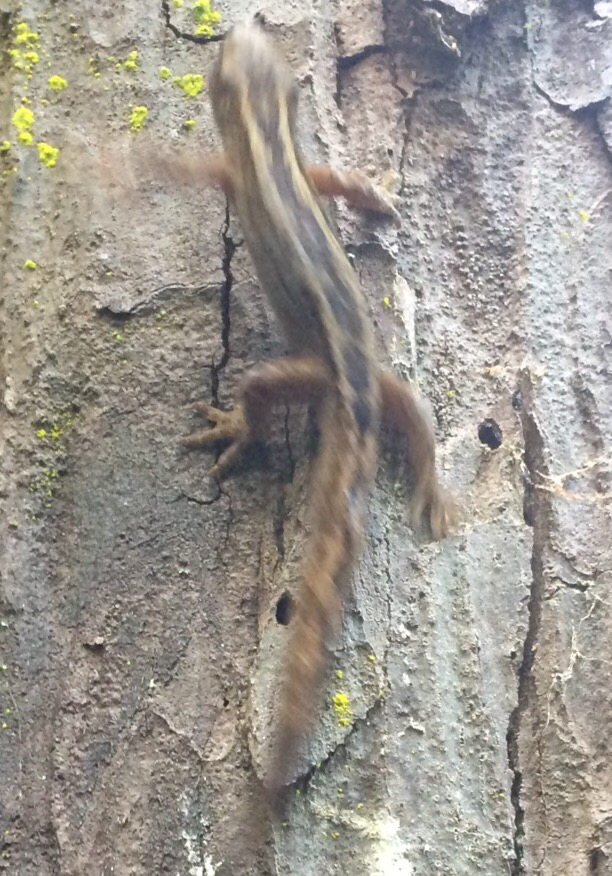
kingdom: Animalia
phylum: Chordata
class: Squamata
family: Diplodactylidae
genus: Woodworthia
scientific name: Woodworthia maculata
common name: Raukawa gecko
